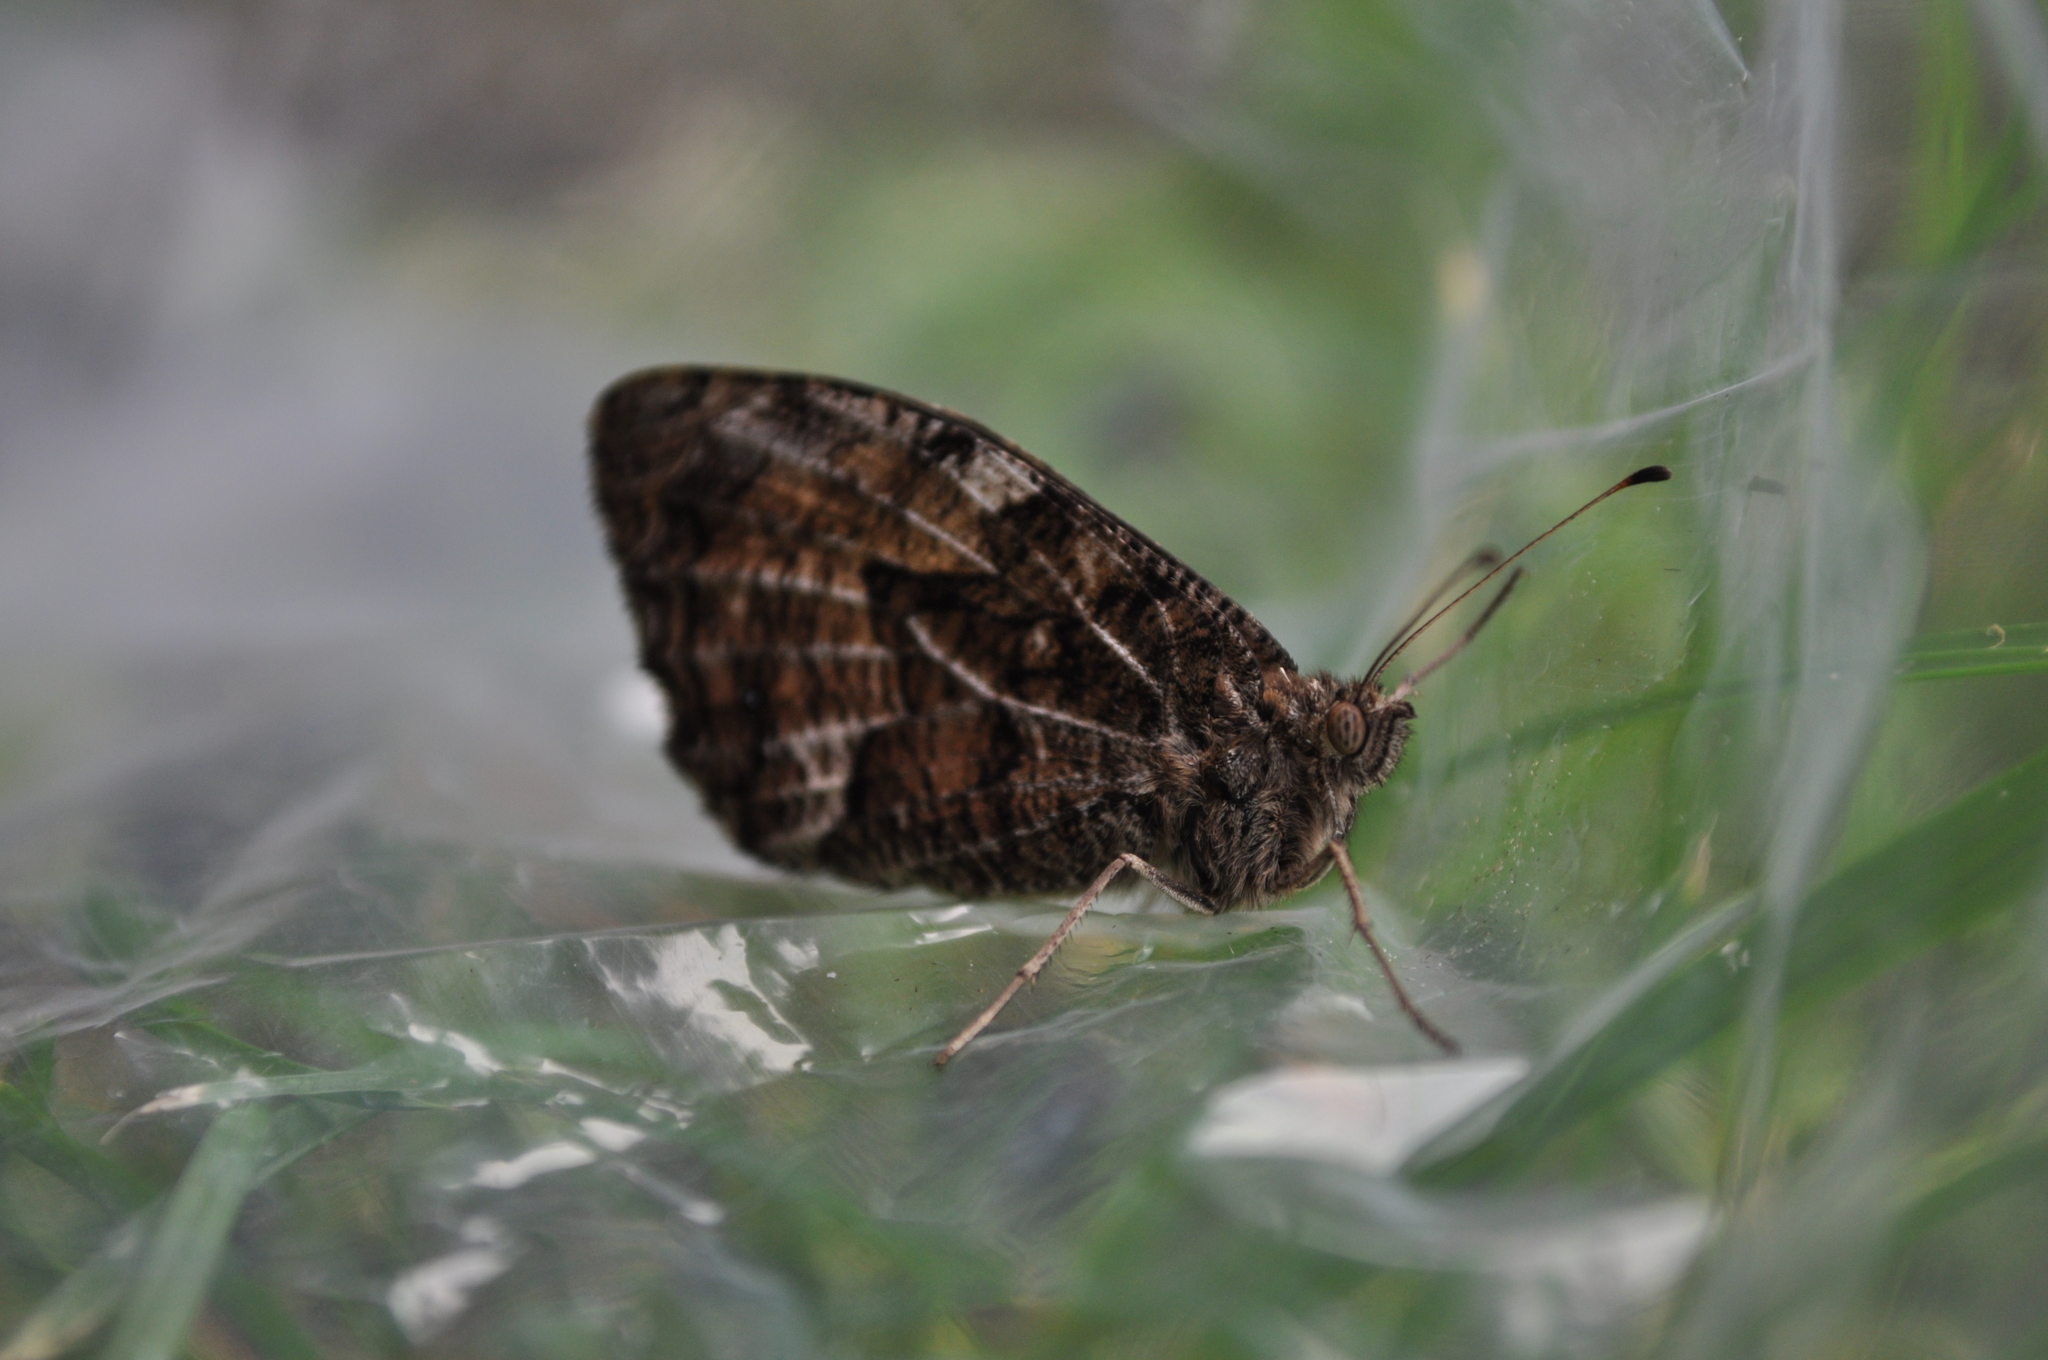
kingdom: Animalia
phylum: Arthropoda
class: Insecta
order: Lepidoptera
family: Nymphalidae
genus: Hipparchia
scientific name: Hipparchia semele
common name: Grayling
